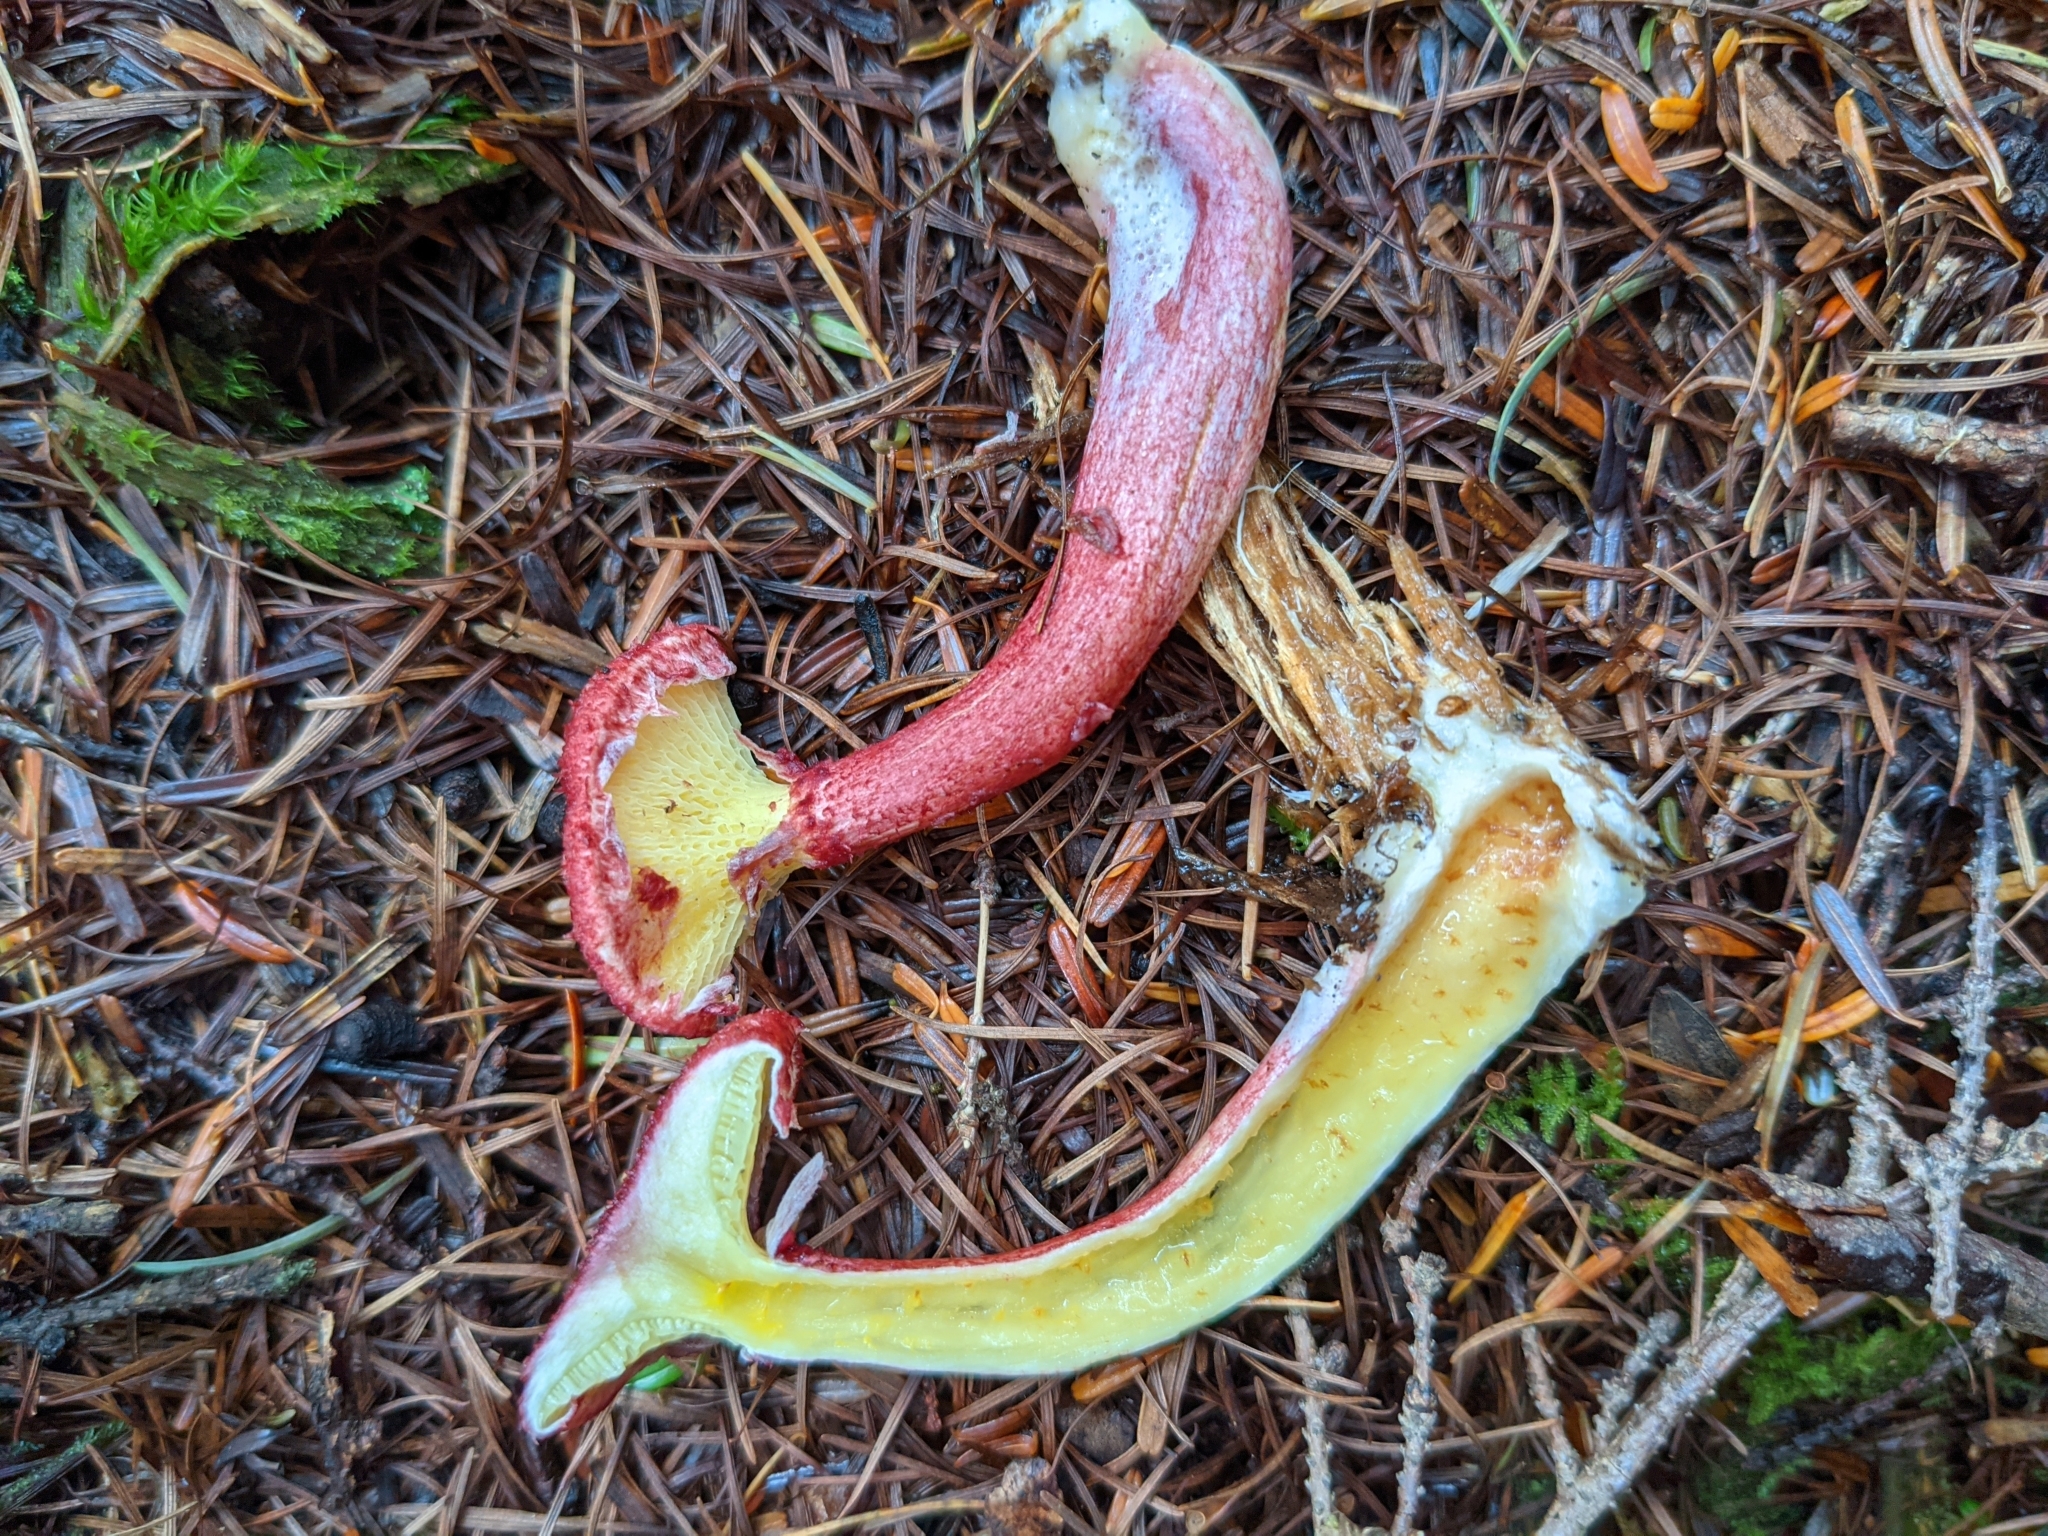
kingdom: Fungi
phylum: Basidiomycota
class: Agaricomycetes
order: Boletales
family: Suillaceae
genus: Boletinus
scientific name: Boletinus asiaticus
